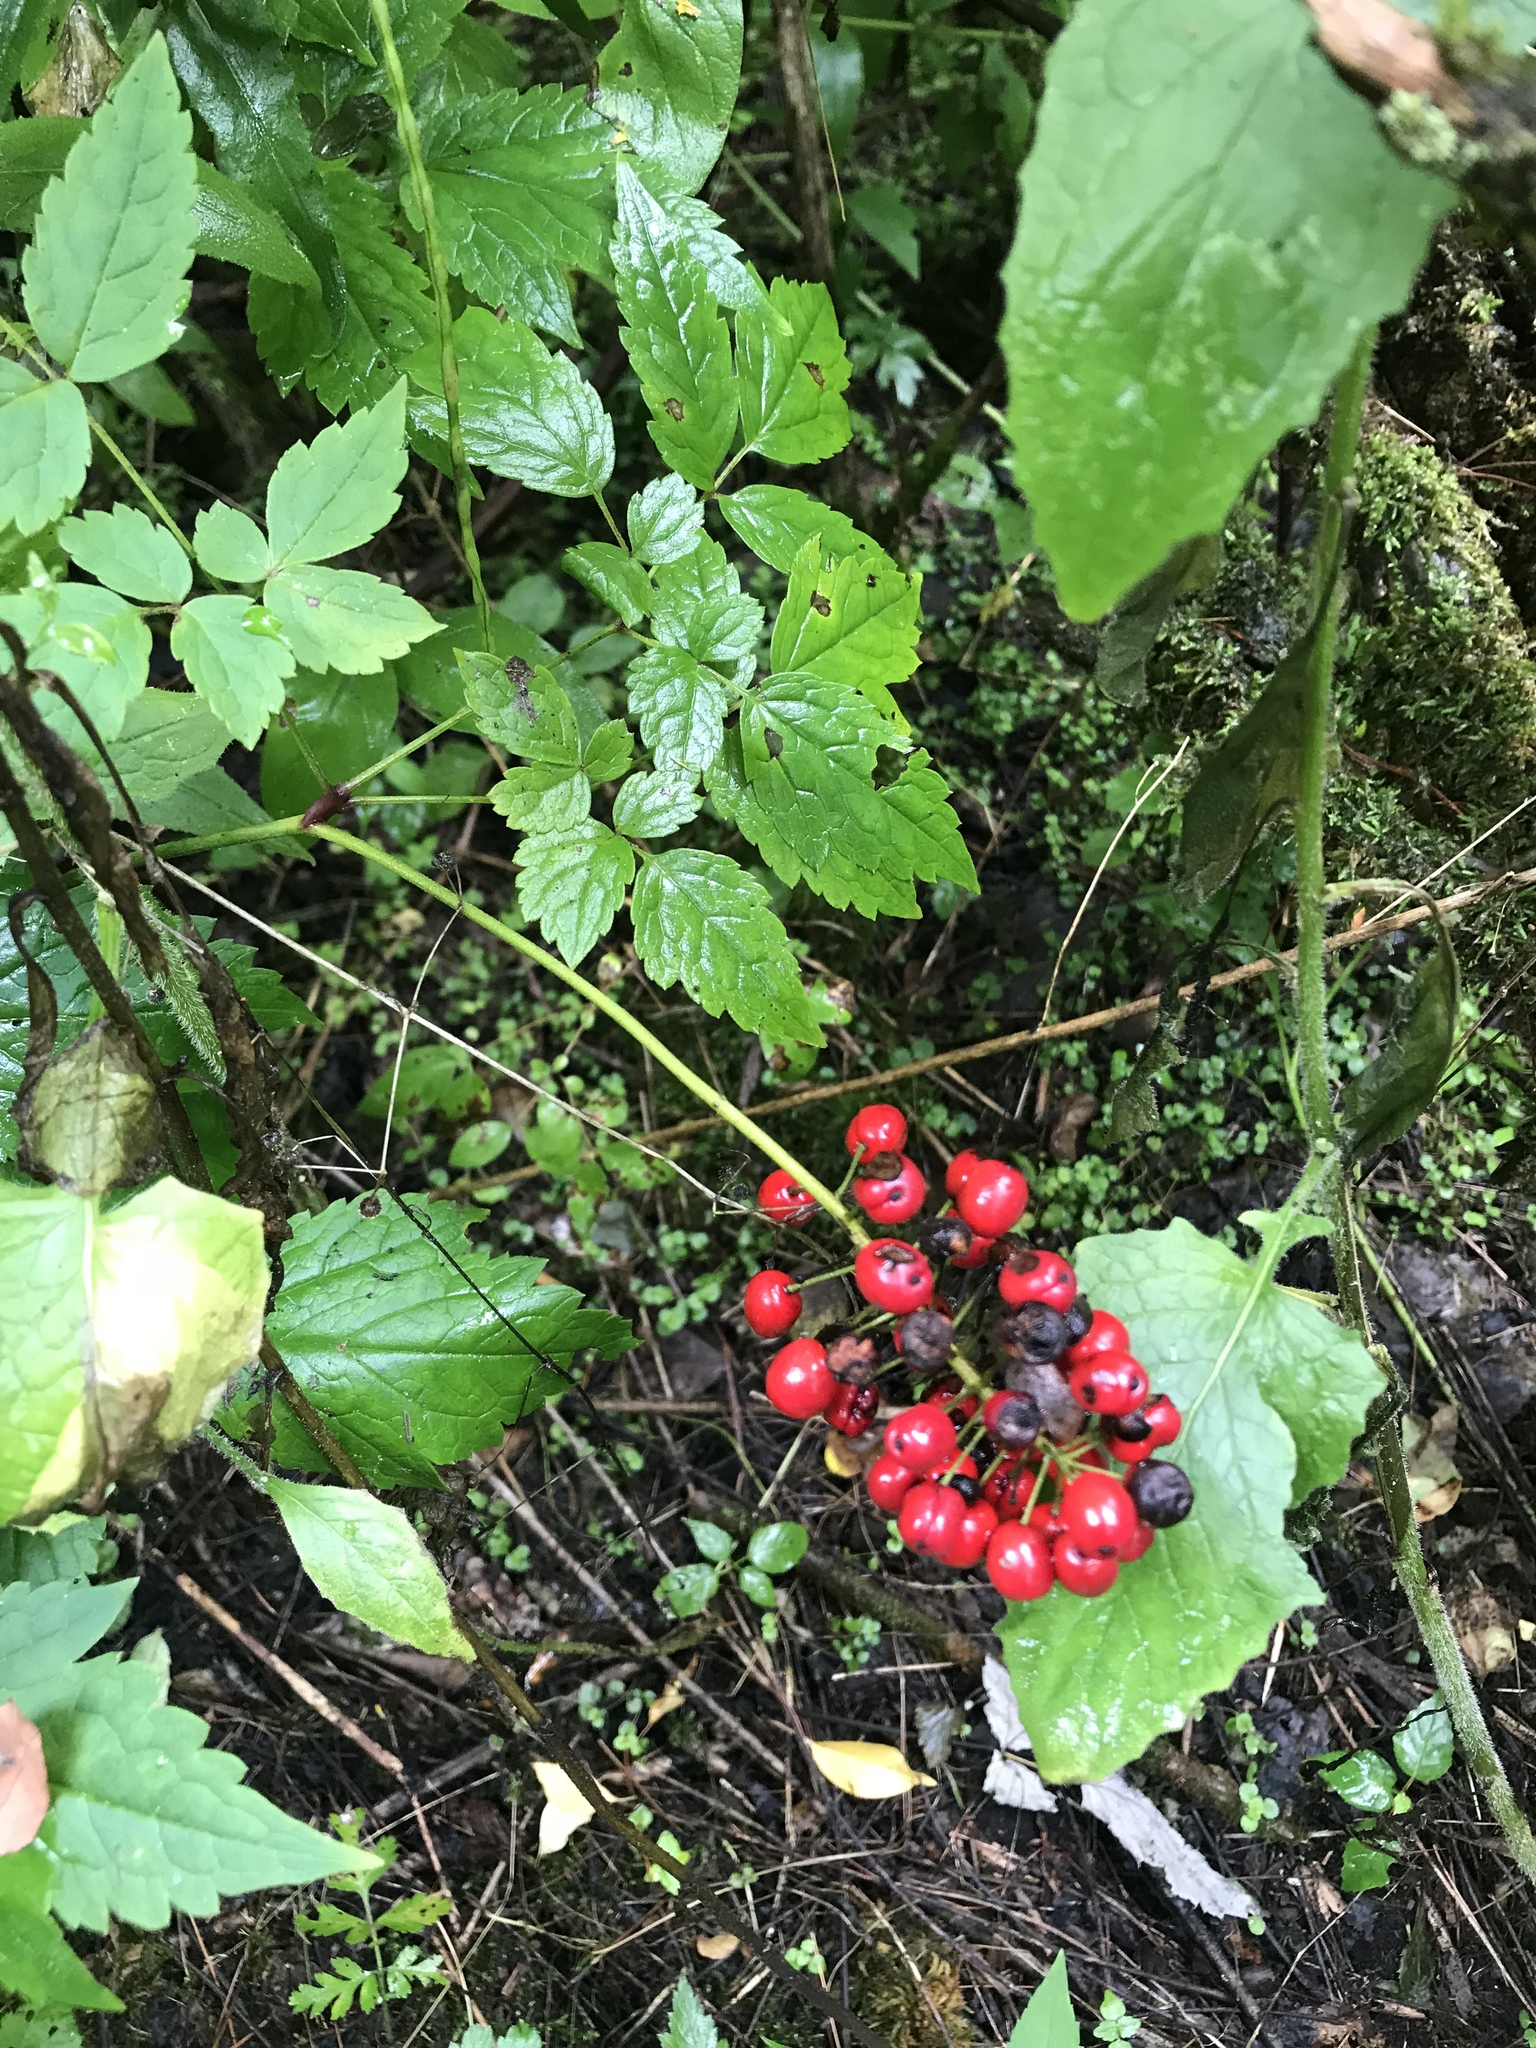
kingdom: Plantae
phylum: Tracheophyta
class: Magnoliopsida
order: Ranunculales
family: Ranunculaceae
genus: Actaea
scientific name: Actaea rubra
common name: Red baneberry
